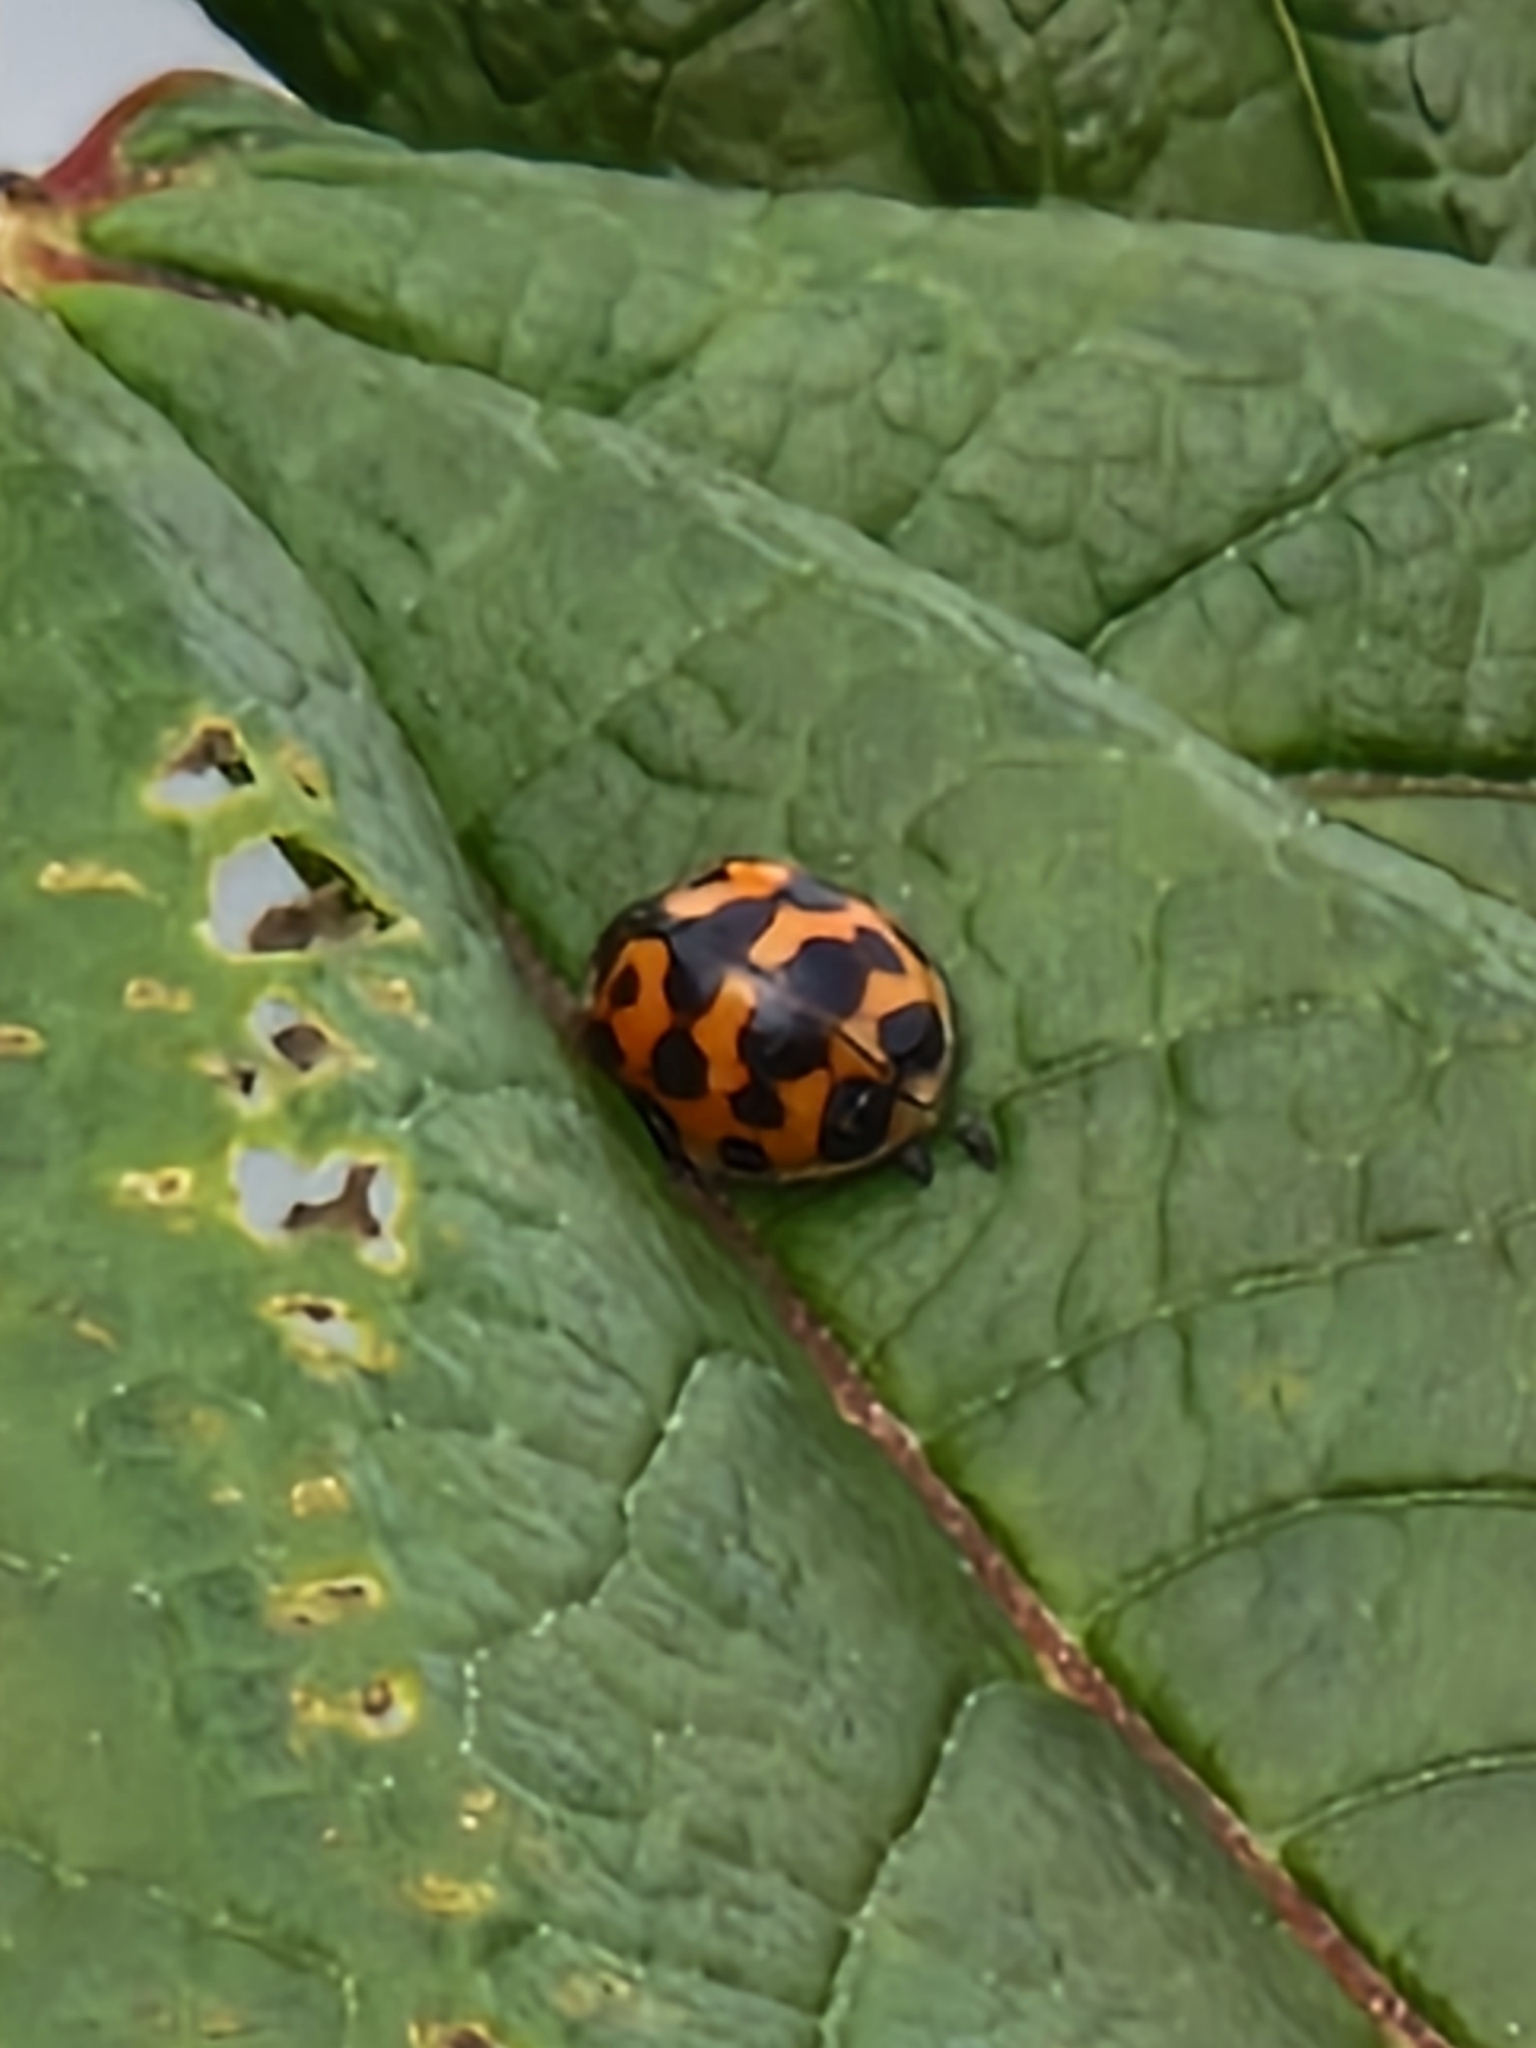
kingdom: Animalia
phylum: Arthropoda
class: Insecta
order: Coleoptera
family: Coccinellidae
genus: Harmonia
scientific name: Harmonia axyridis
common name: Harlequin ladybird
